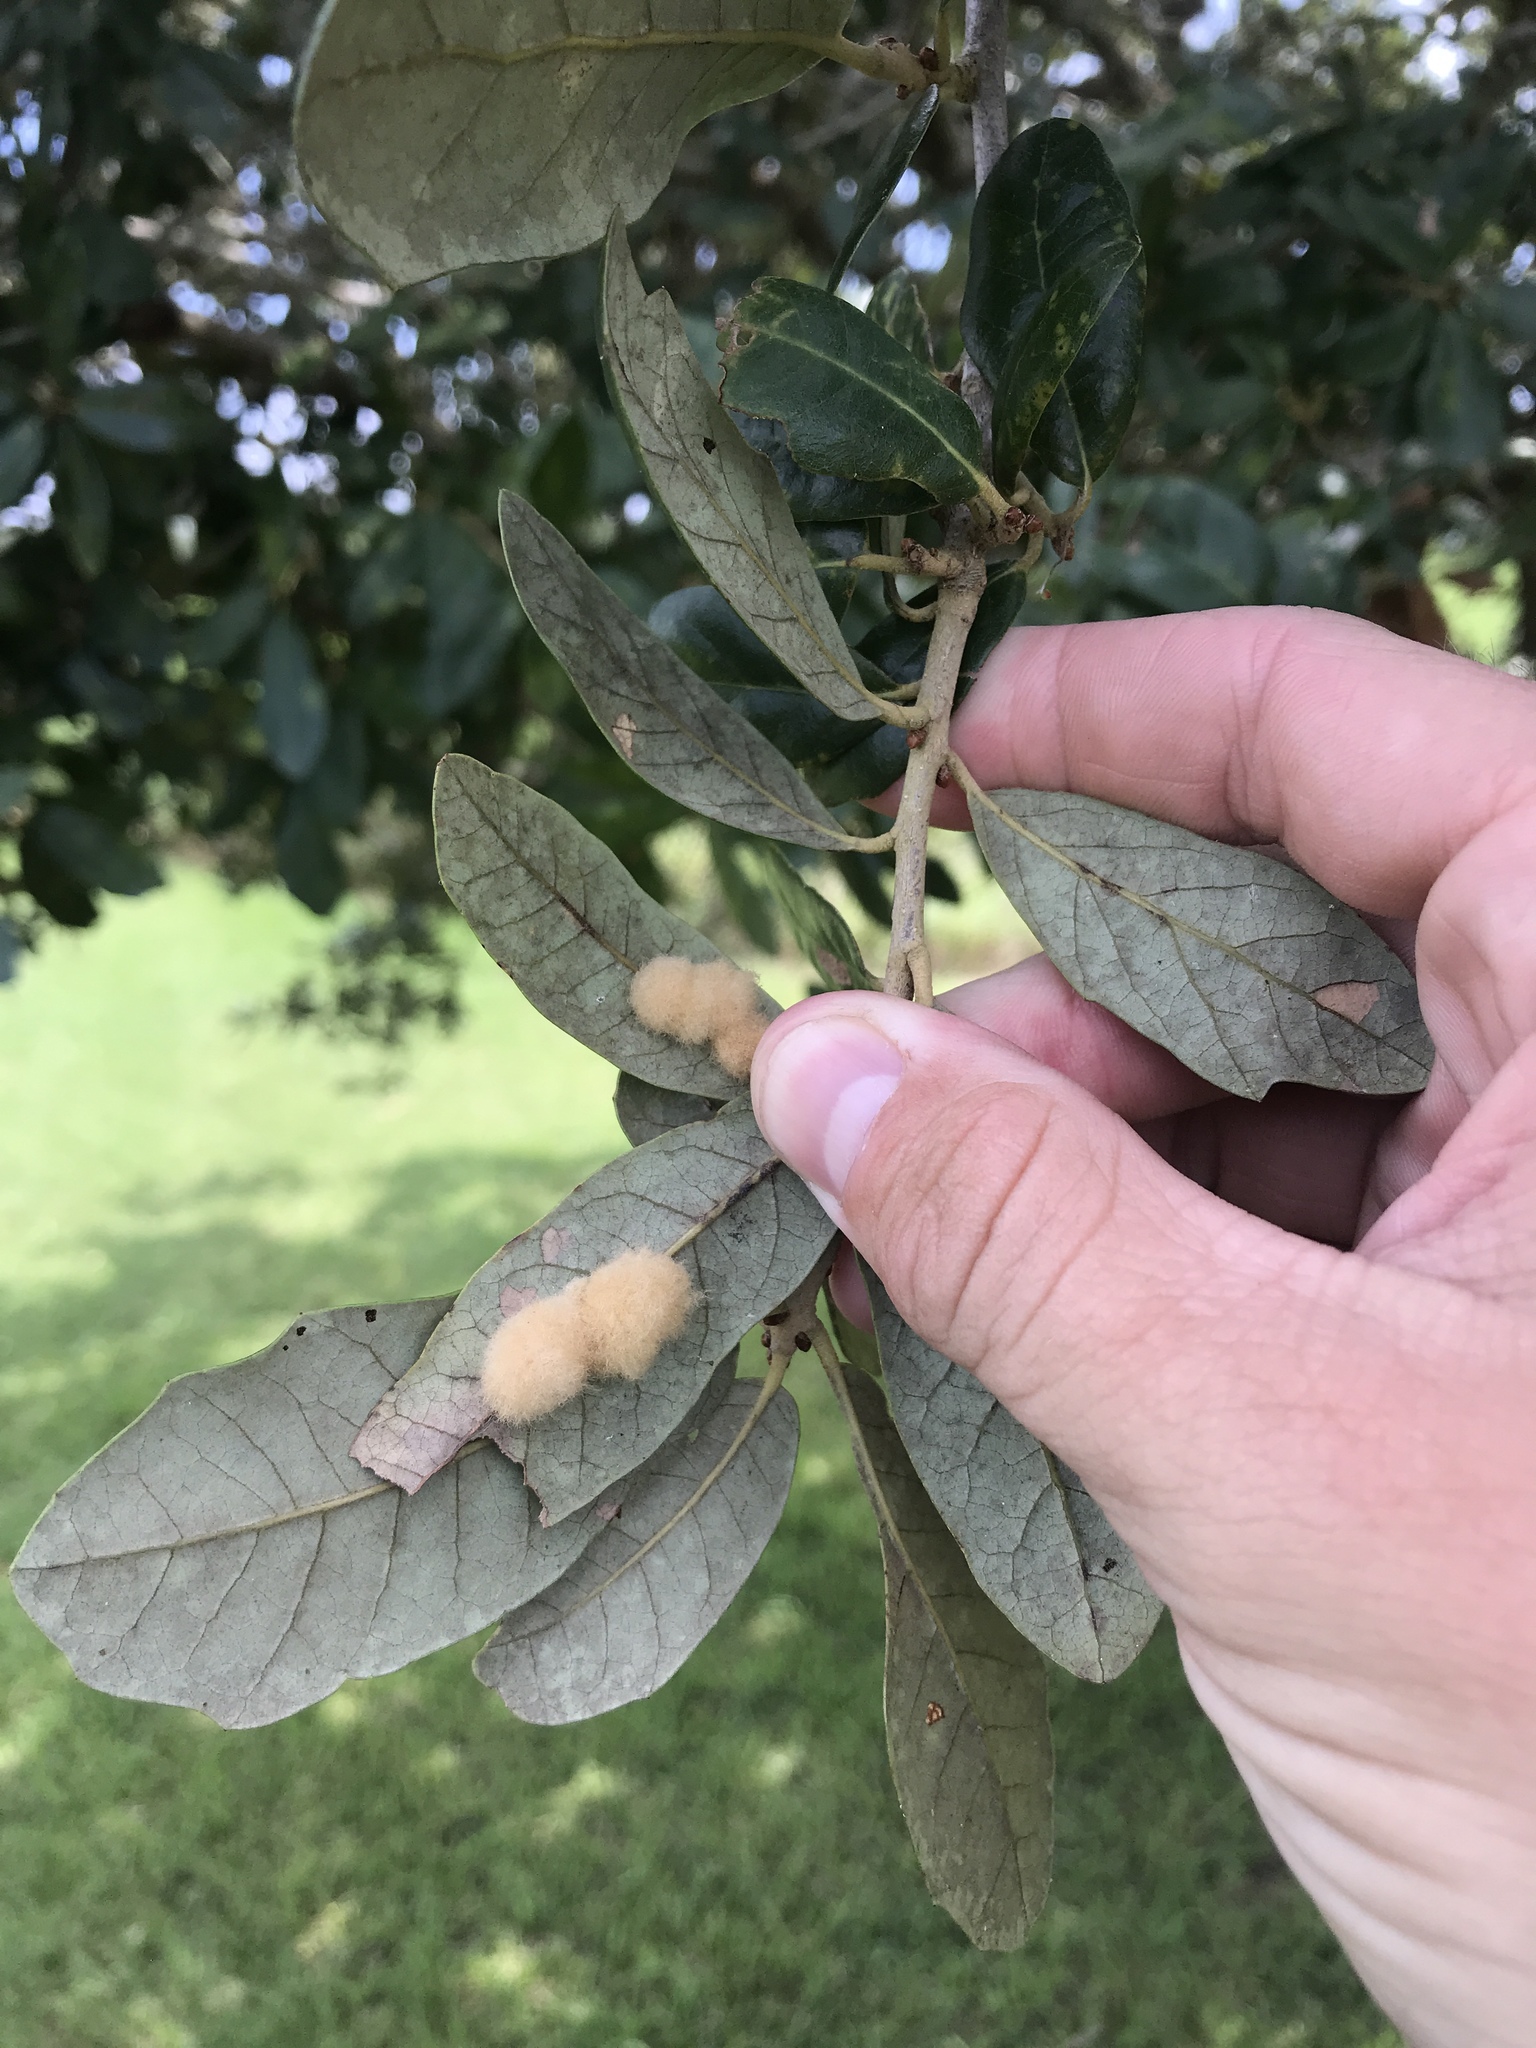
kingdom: Animalia
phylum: Arthropoda
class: Insecta
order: Hymenoptera
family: Cynipidae
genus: Andricus
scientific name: Andricus Druon quercuslanigerum
